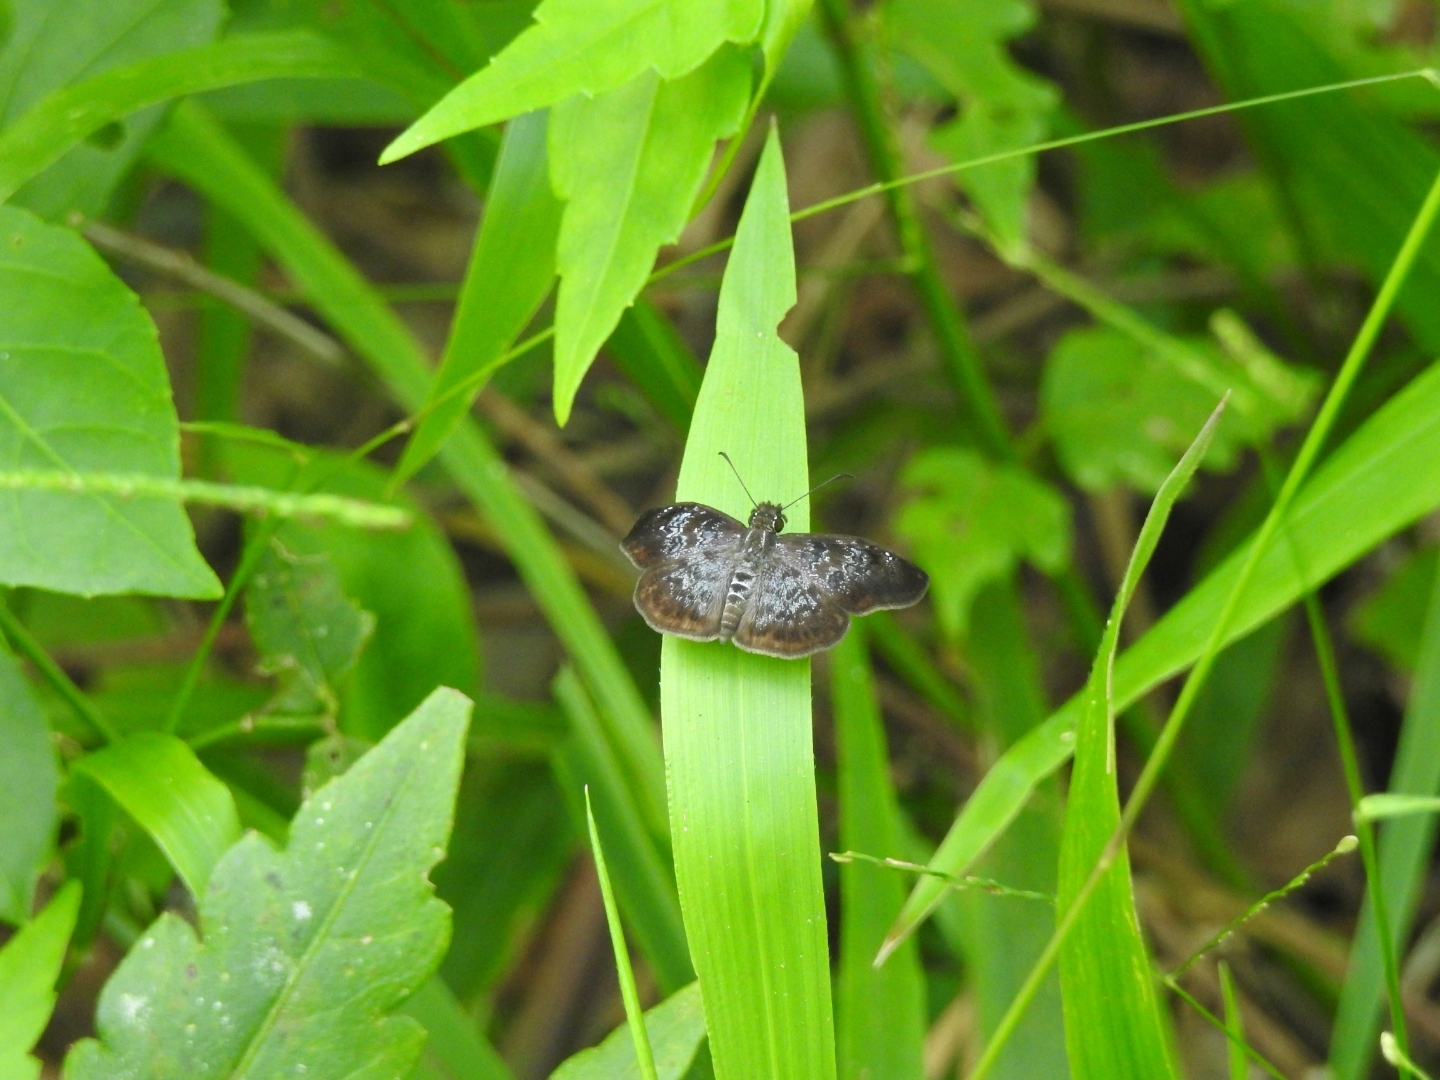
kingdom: Animalia
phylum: Arthropoda
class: Insecta
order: Lepidoptera
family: Hesperiidae
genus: Sophista
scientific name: Sophista bifasciata
